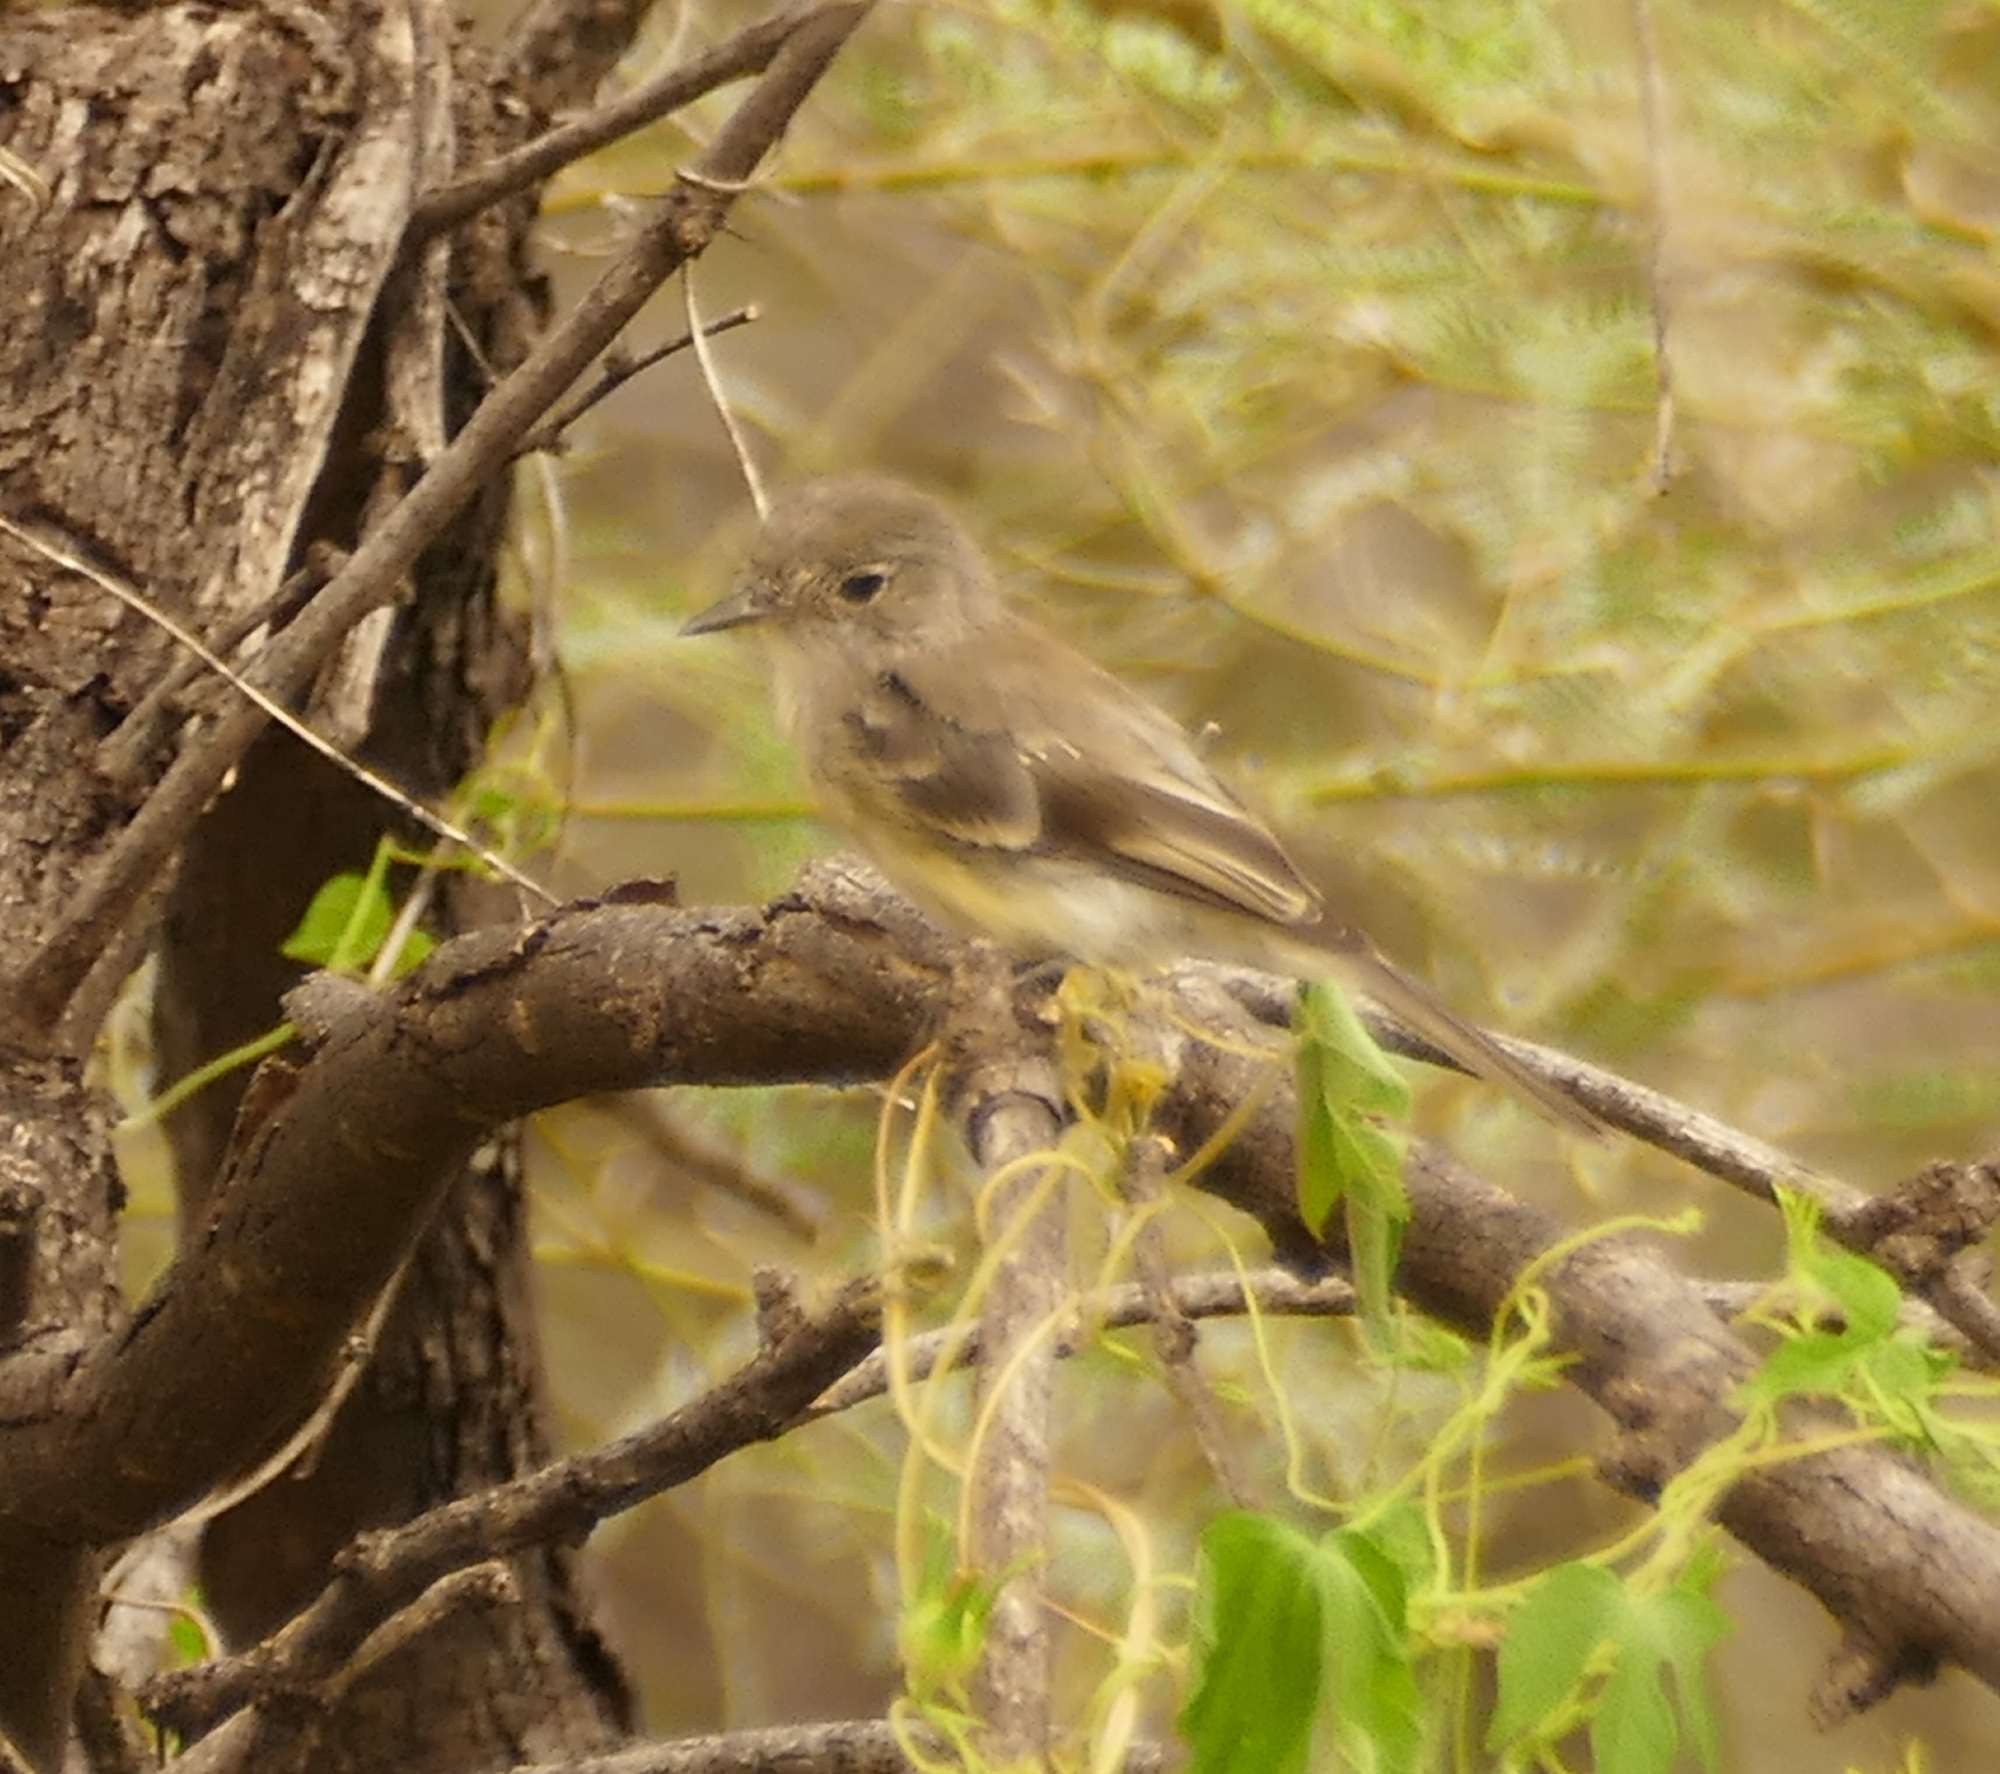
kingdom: Animalia
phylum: Chordata
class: Aves
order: Passeriformes
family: Tyrannidae
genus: Empidonax
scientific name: Empidonax wrightii
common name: Gray flycatcher
